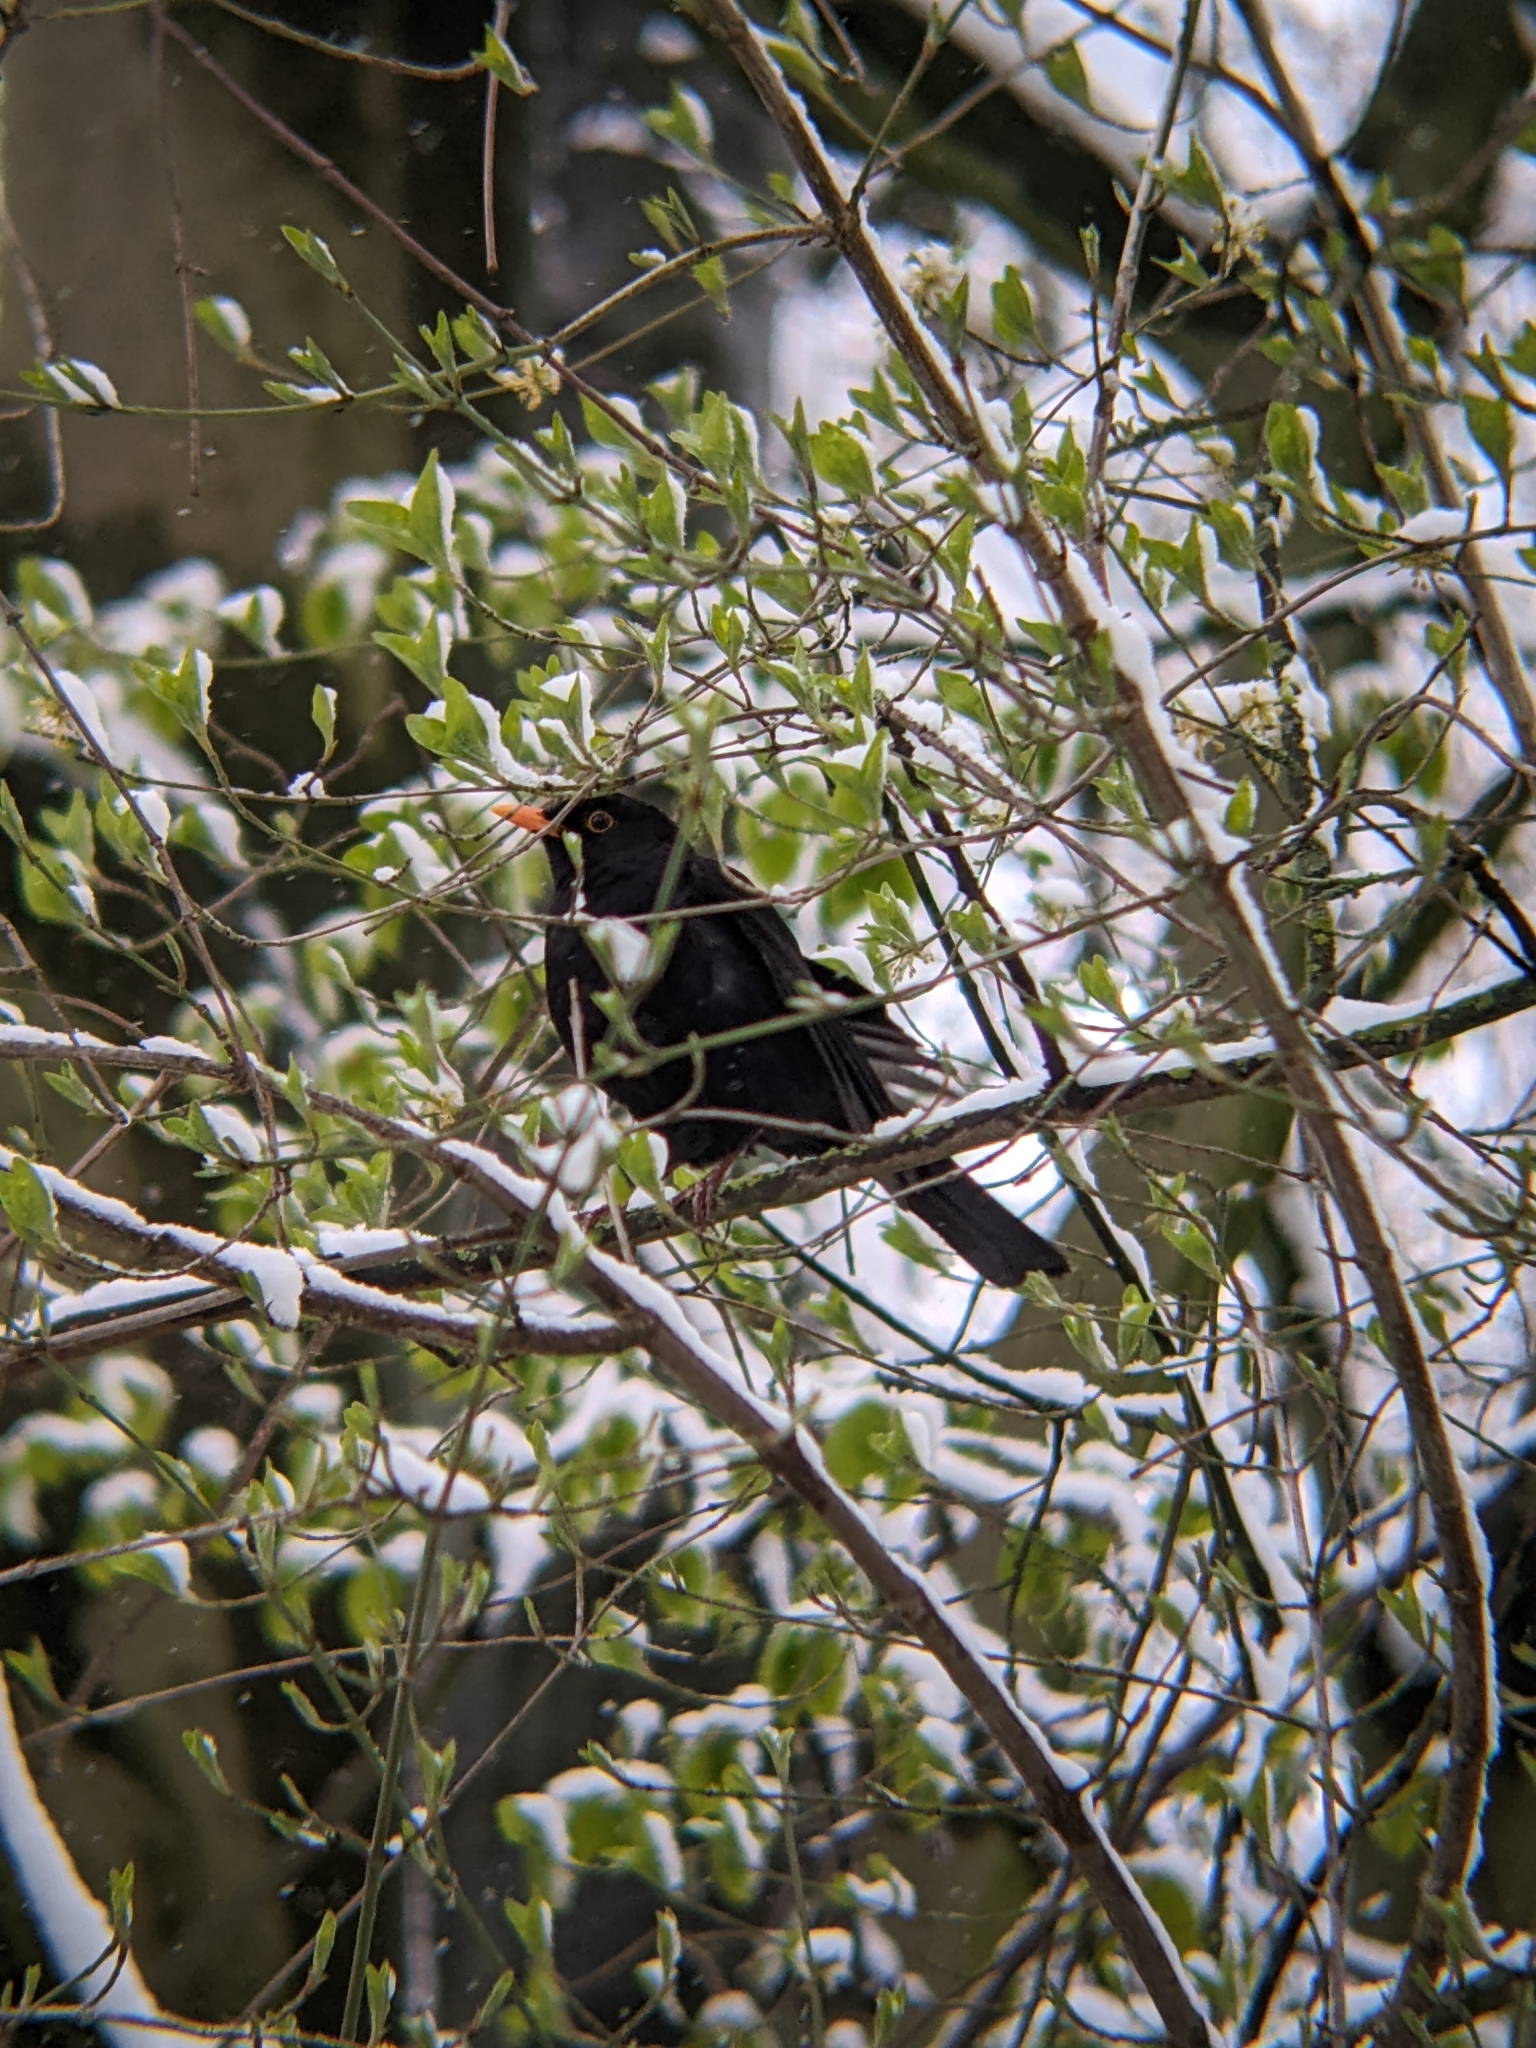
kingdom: Animalia
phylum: Chordata
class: Aves
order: Passeriformes
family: Turdidae
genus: Turdus
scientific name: Turdus merula
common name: Common blackbird
